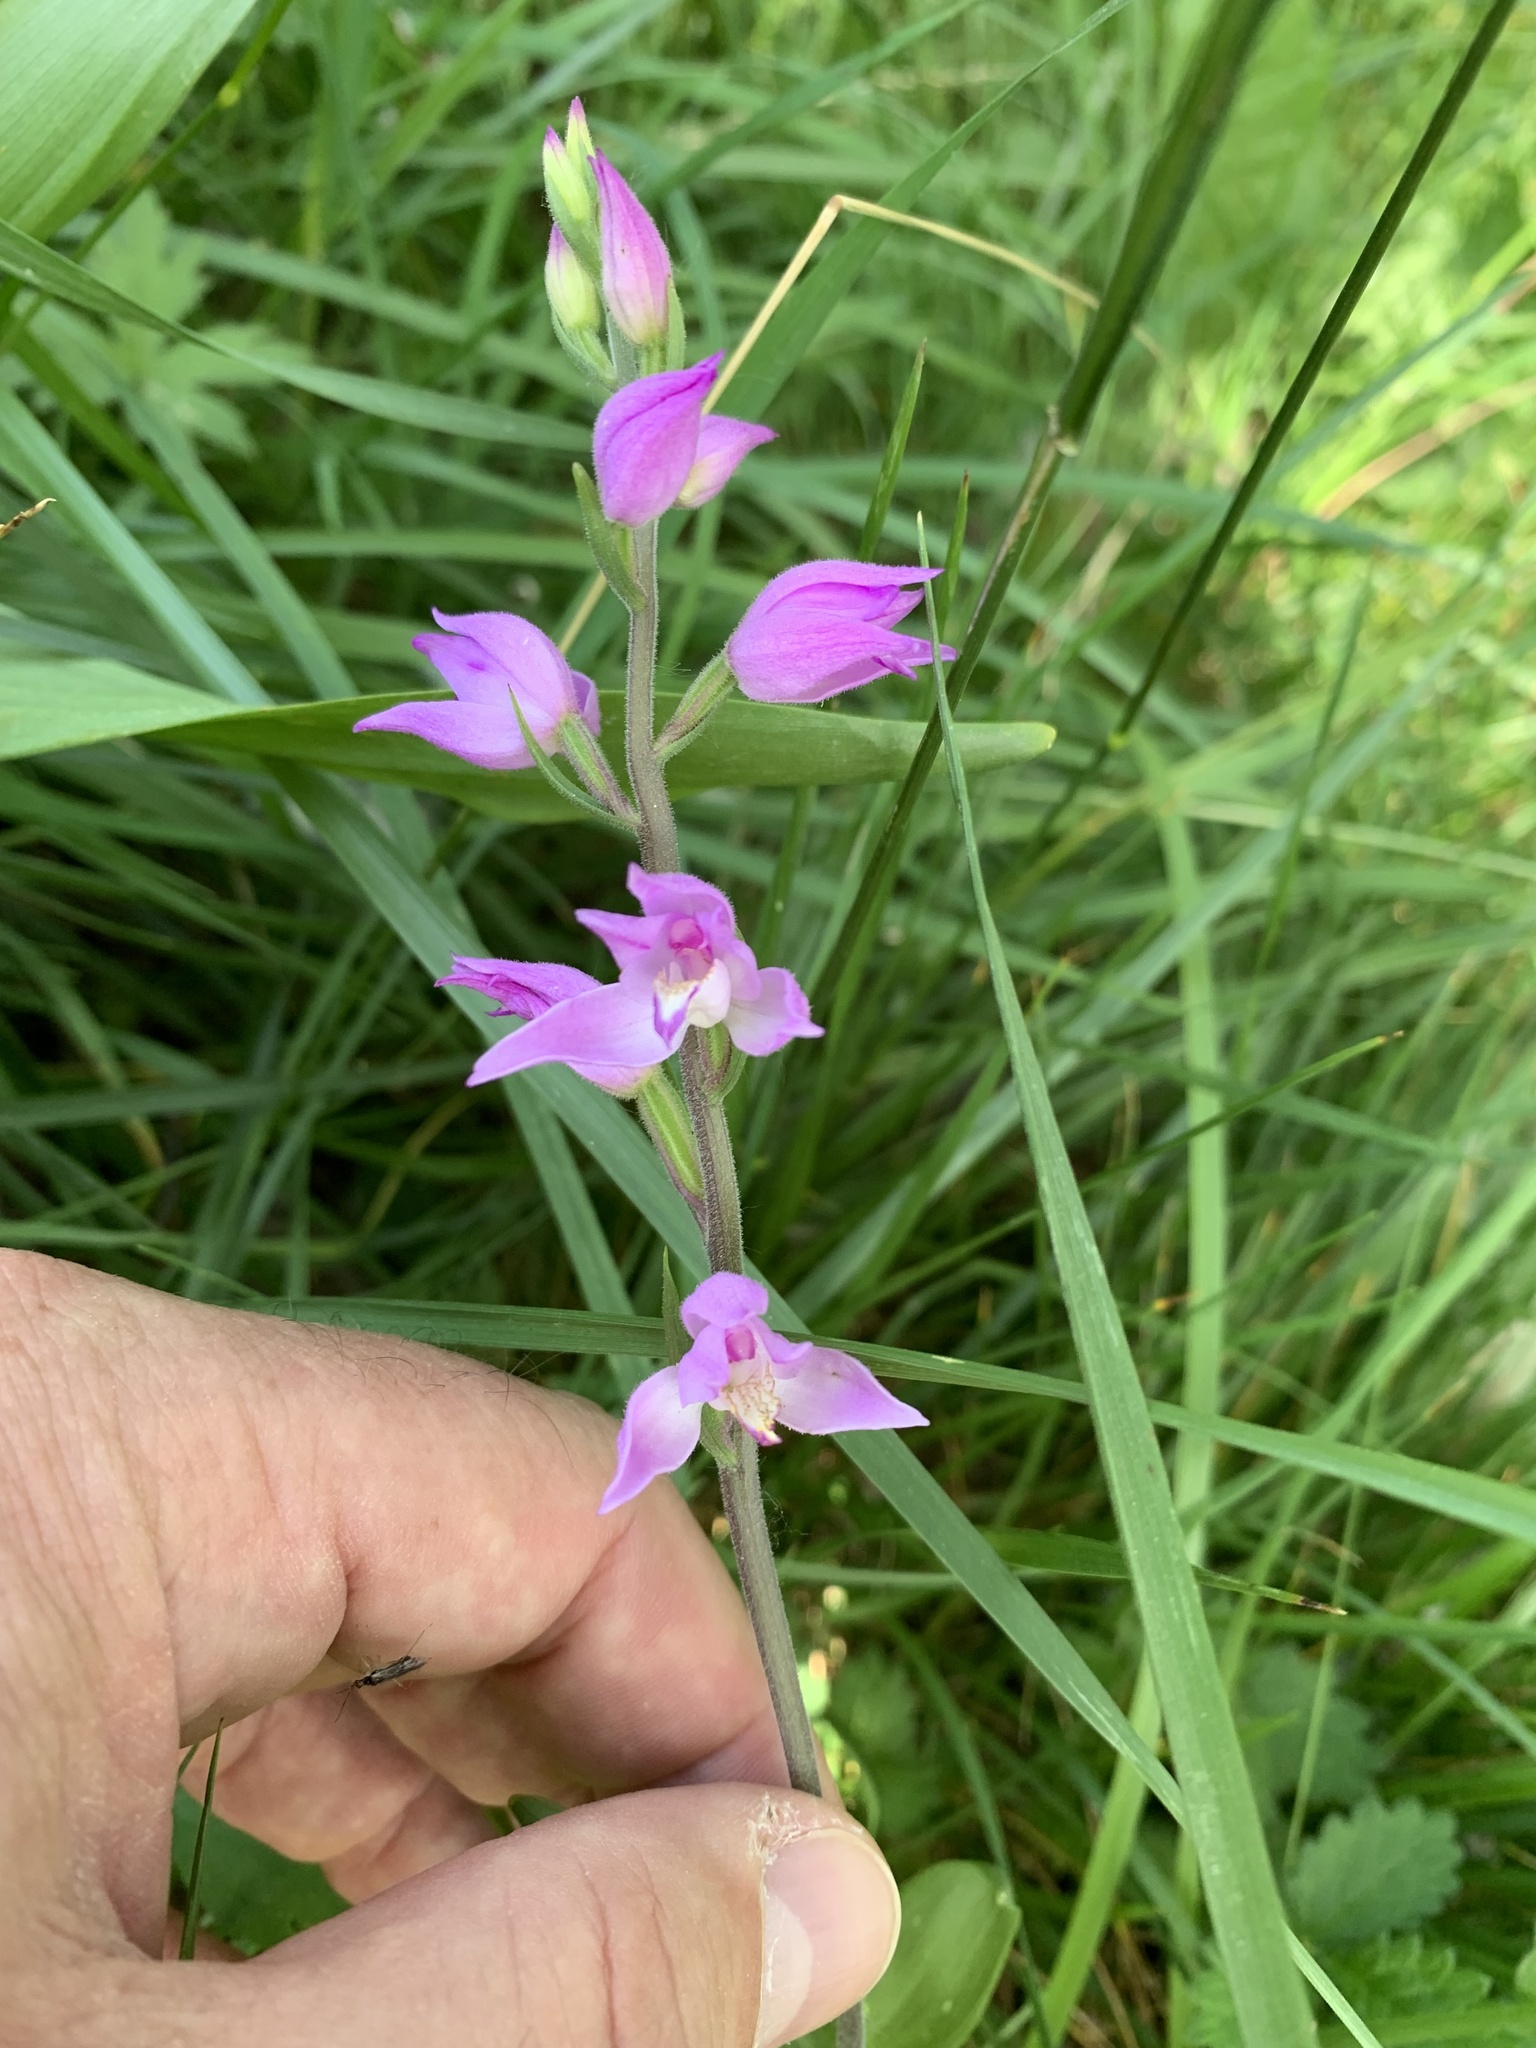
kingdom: Plantae
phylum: Tracheophyta
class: Liliopsida
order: Asparagales
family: Orchidaceae
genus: Cephalanthera
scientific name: Cephalanthera rubra
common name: Red helleborine
